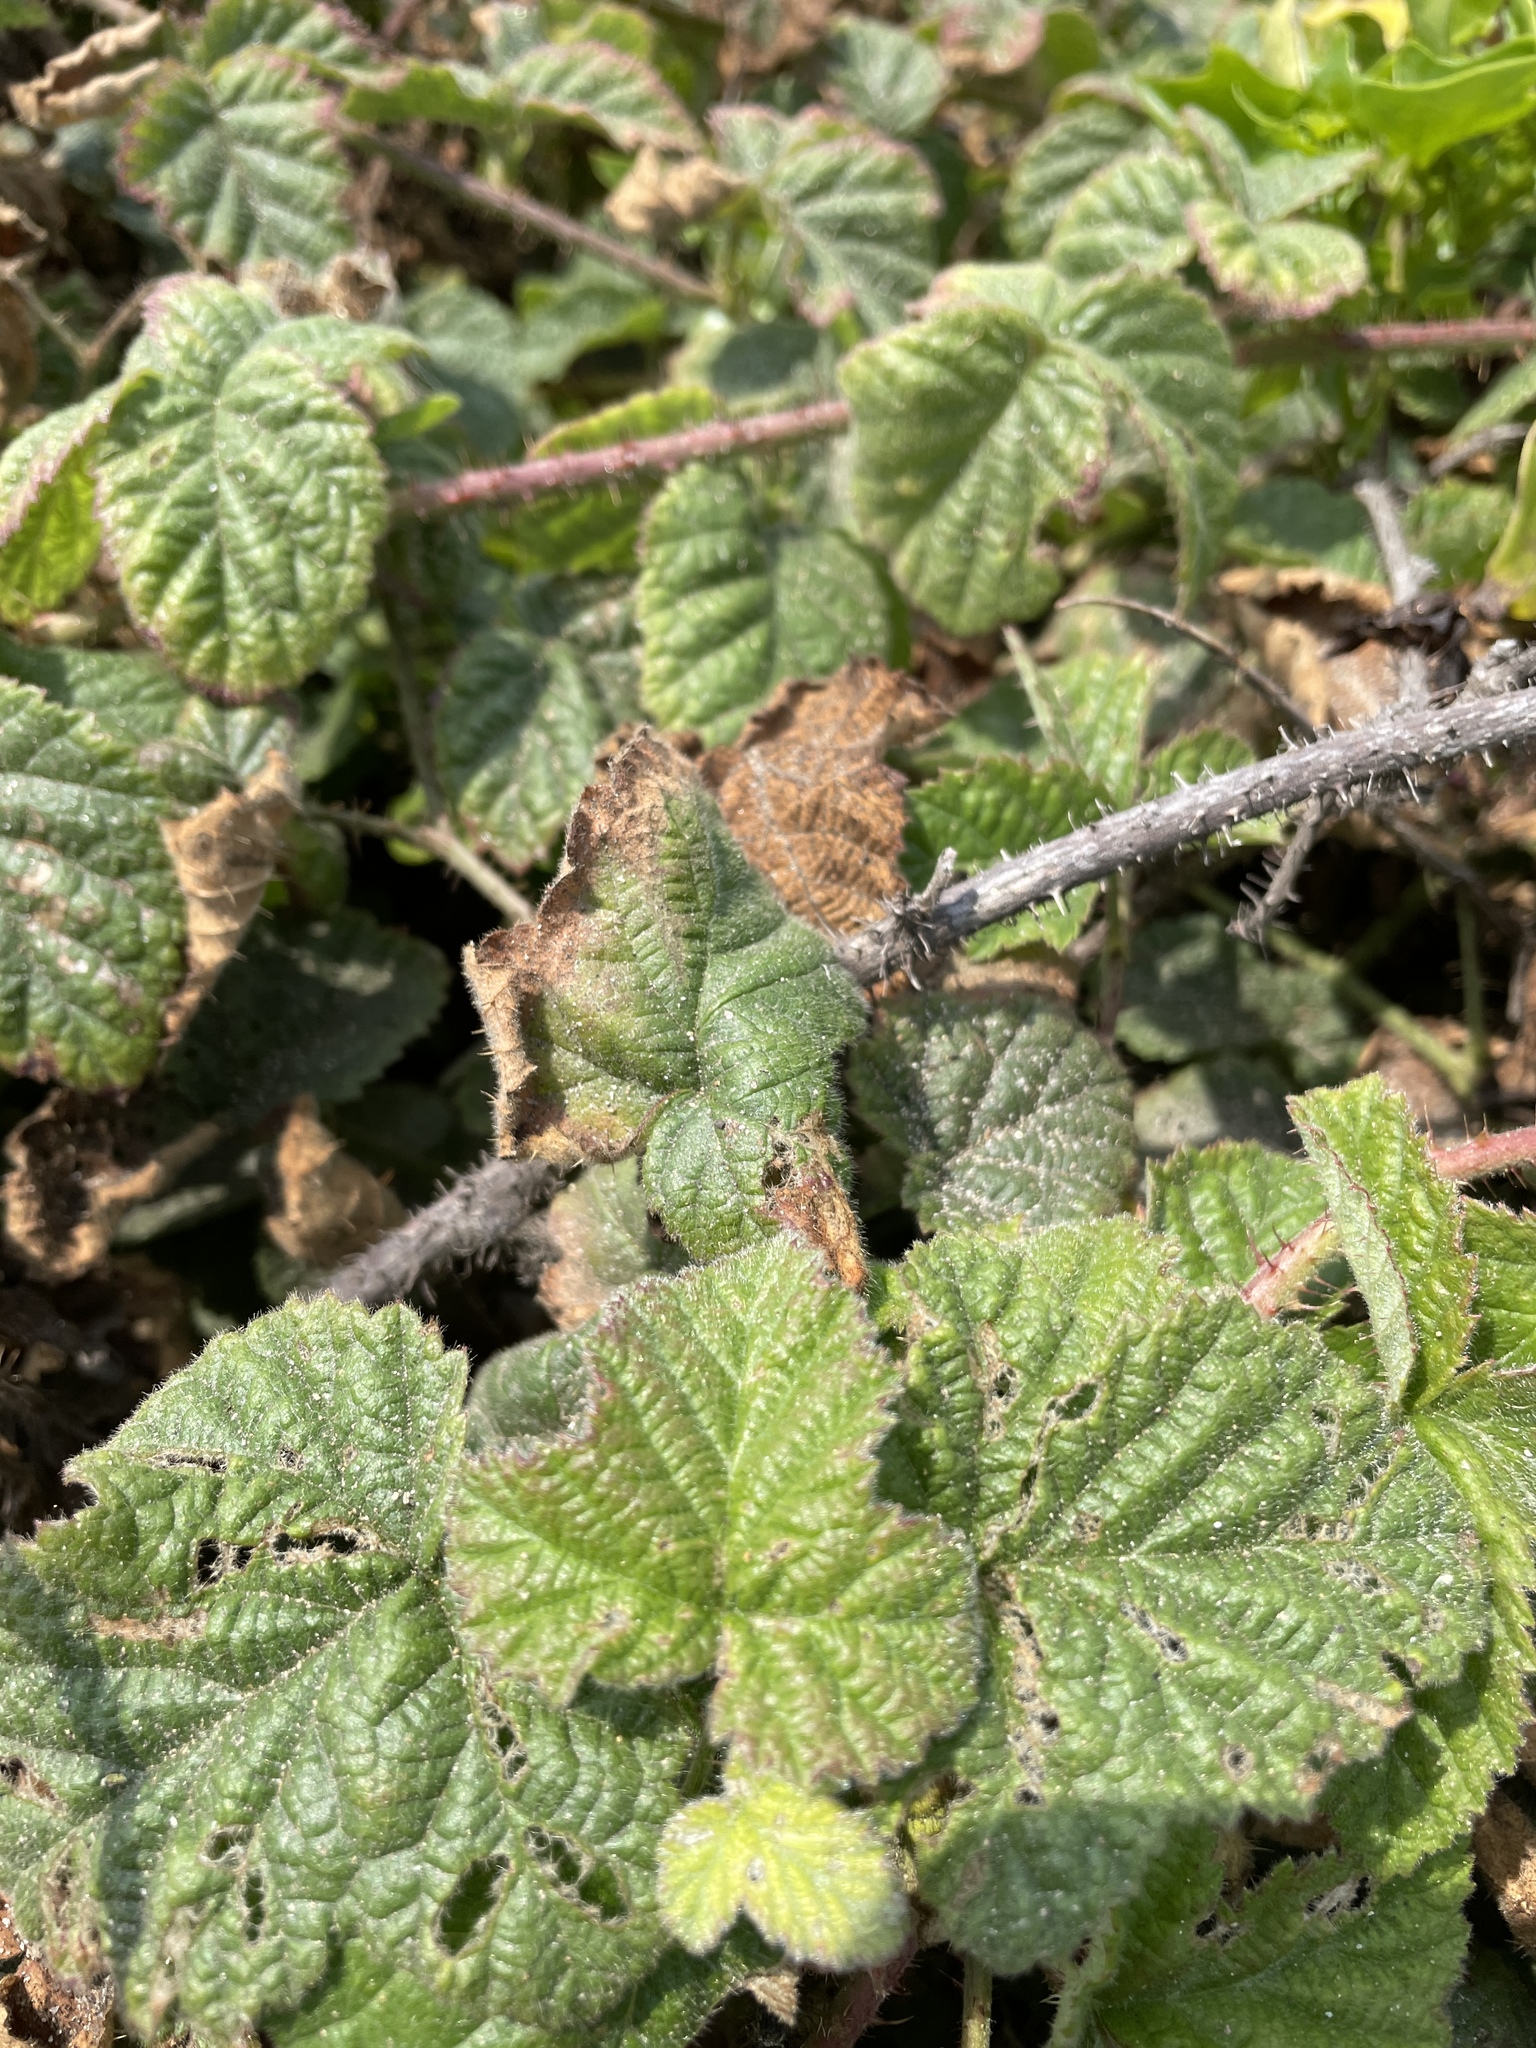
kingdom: Plantae
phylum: Tracheophyta
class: Magnoliopsida
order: Rosales
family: Rosaceae
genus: Rubus
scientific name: Rubus ursinus
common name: Pacific blackberry
